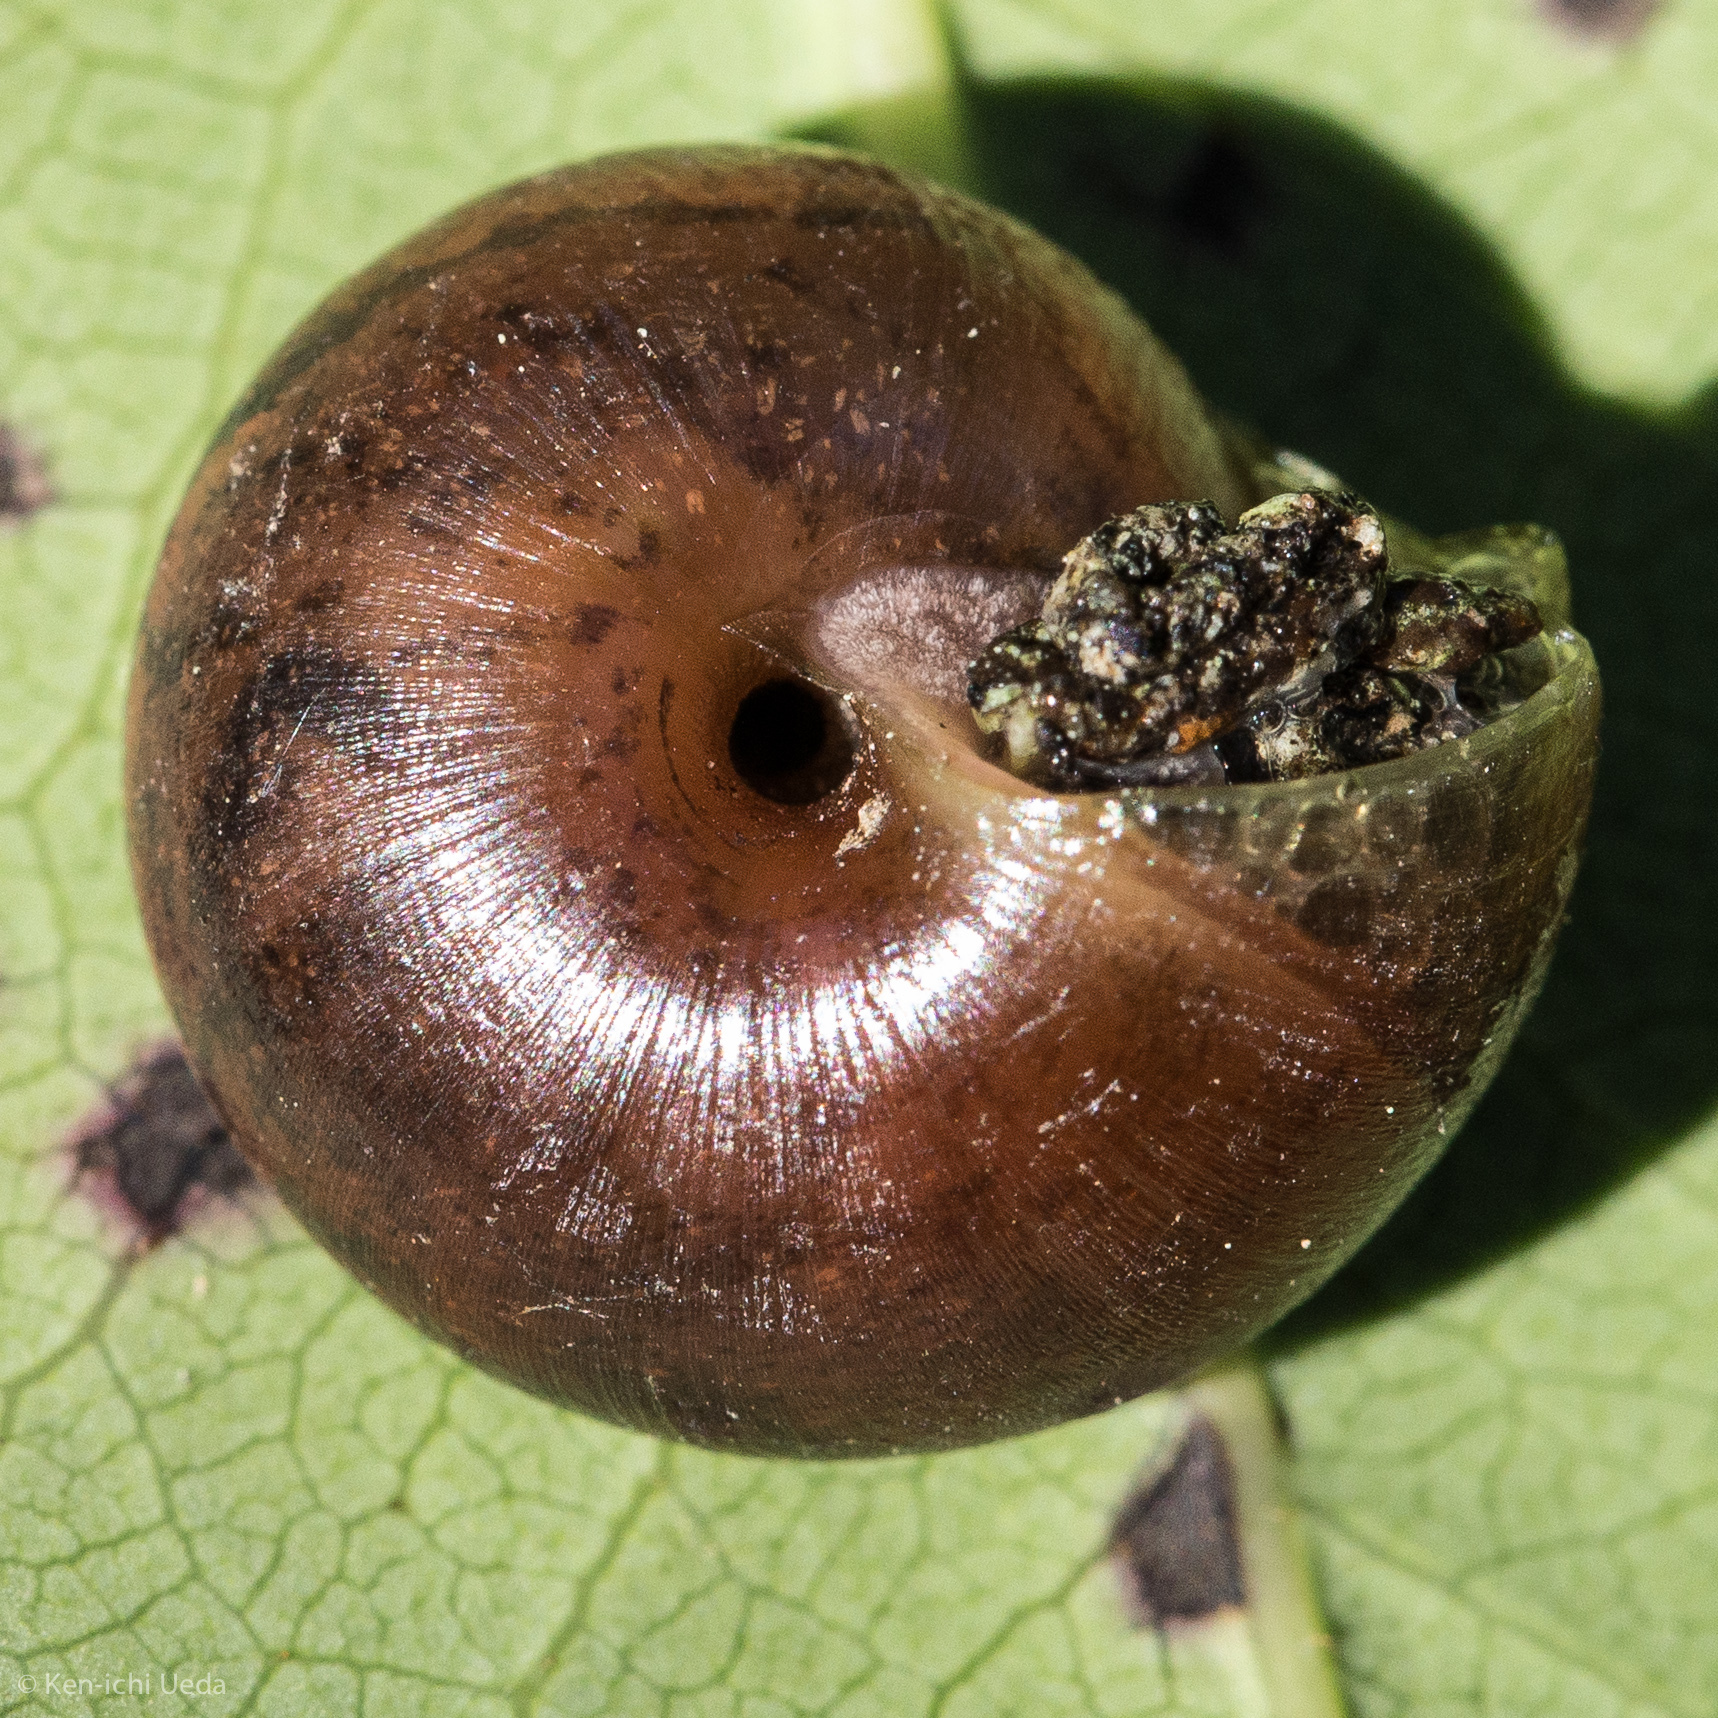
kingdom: Animalia
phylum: Mollusca
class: Gastropoda
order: Stylommatophora
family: Xanthonychidae
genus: Helminthoglypta
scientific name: Helminthoglypta diabloensis
